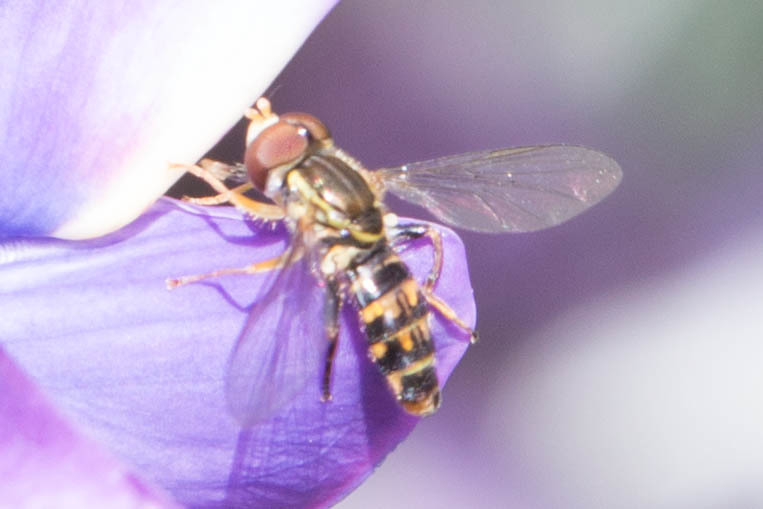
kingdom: Animalia
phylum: Arthropoda
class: Insecta
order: Diptera
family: Syrphidae
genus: Toxomerus
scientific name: Toxomerus occidentalis
